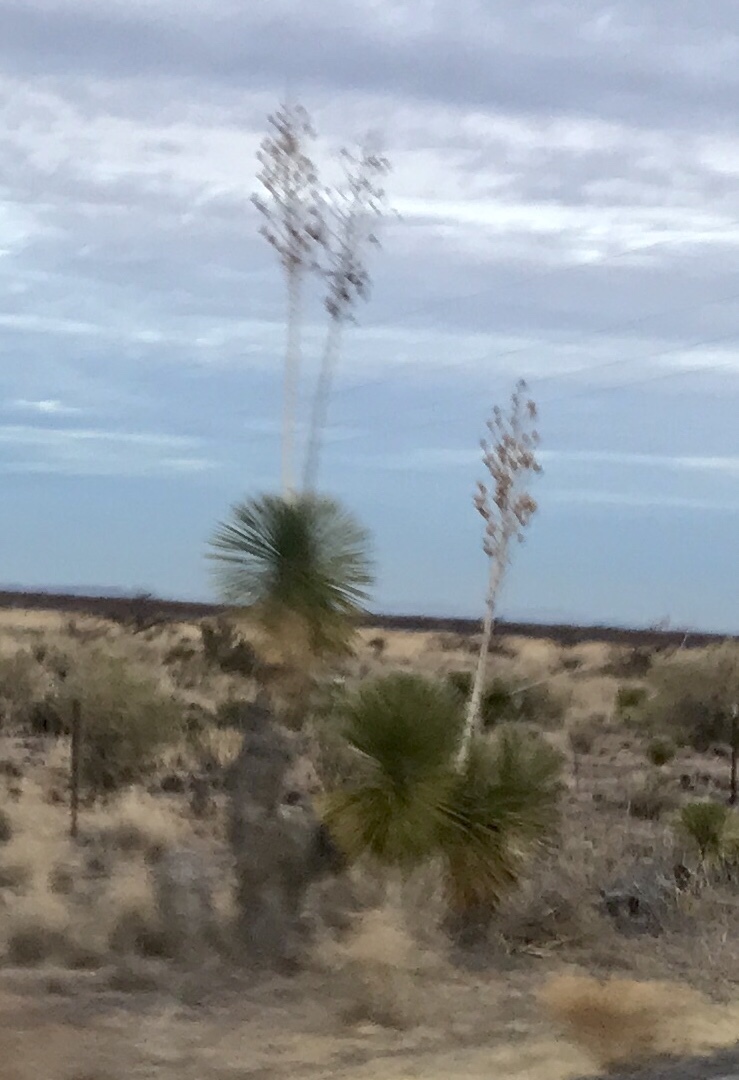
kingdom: Plantae
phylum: Tracheophyta
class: Liliopsida
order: Asparagales
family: Asparagaceae
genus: Yucca
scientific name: Yucca elata
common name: Palmella
